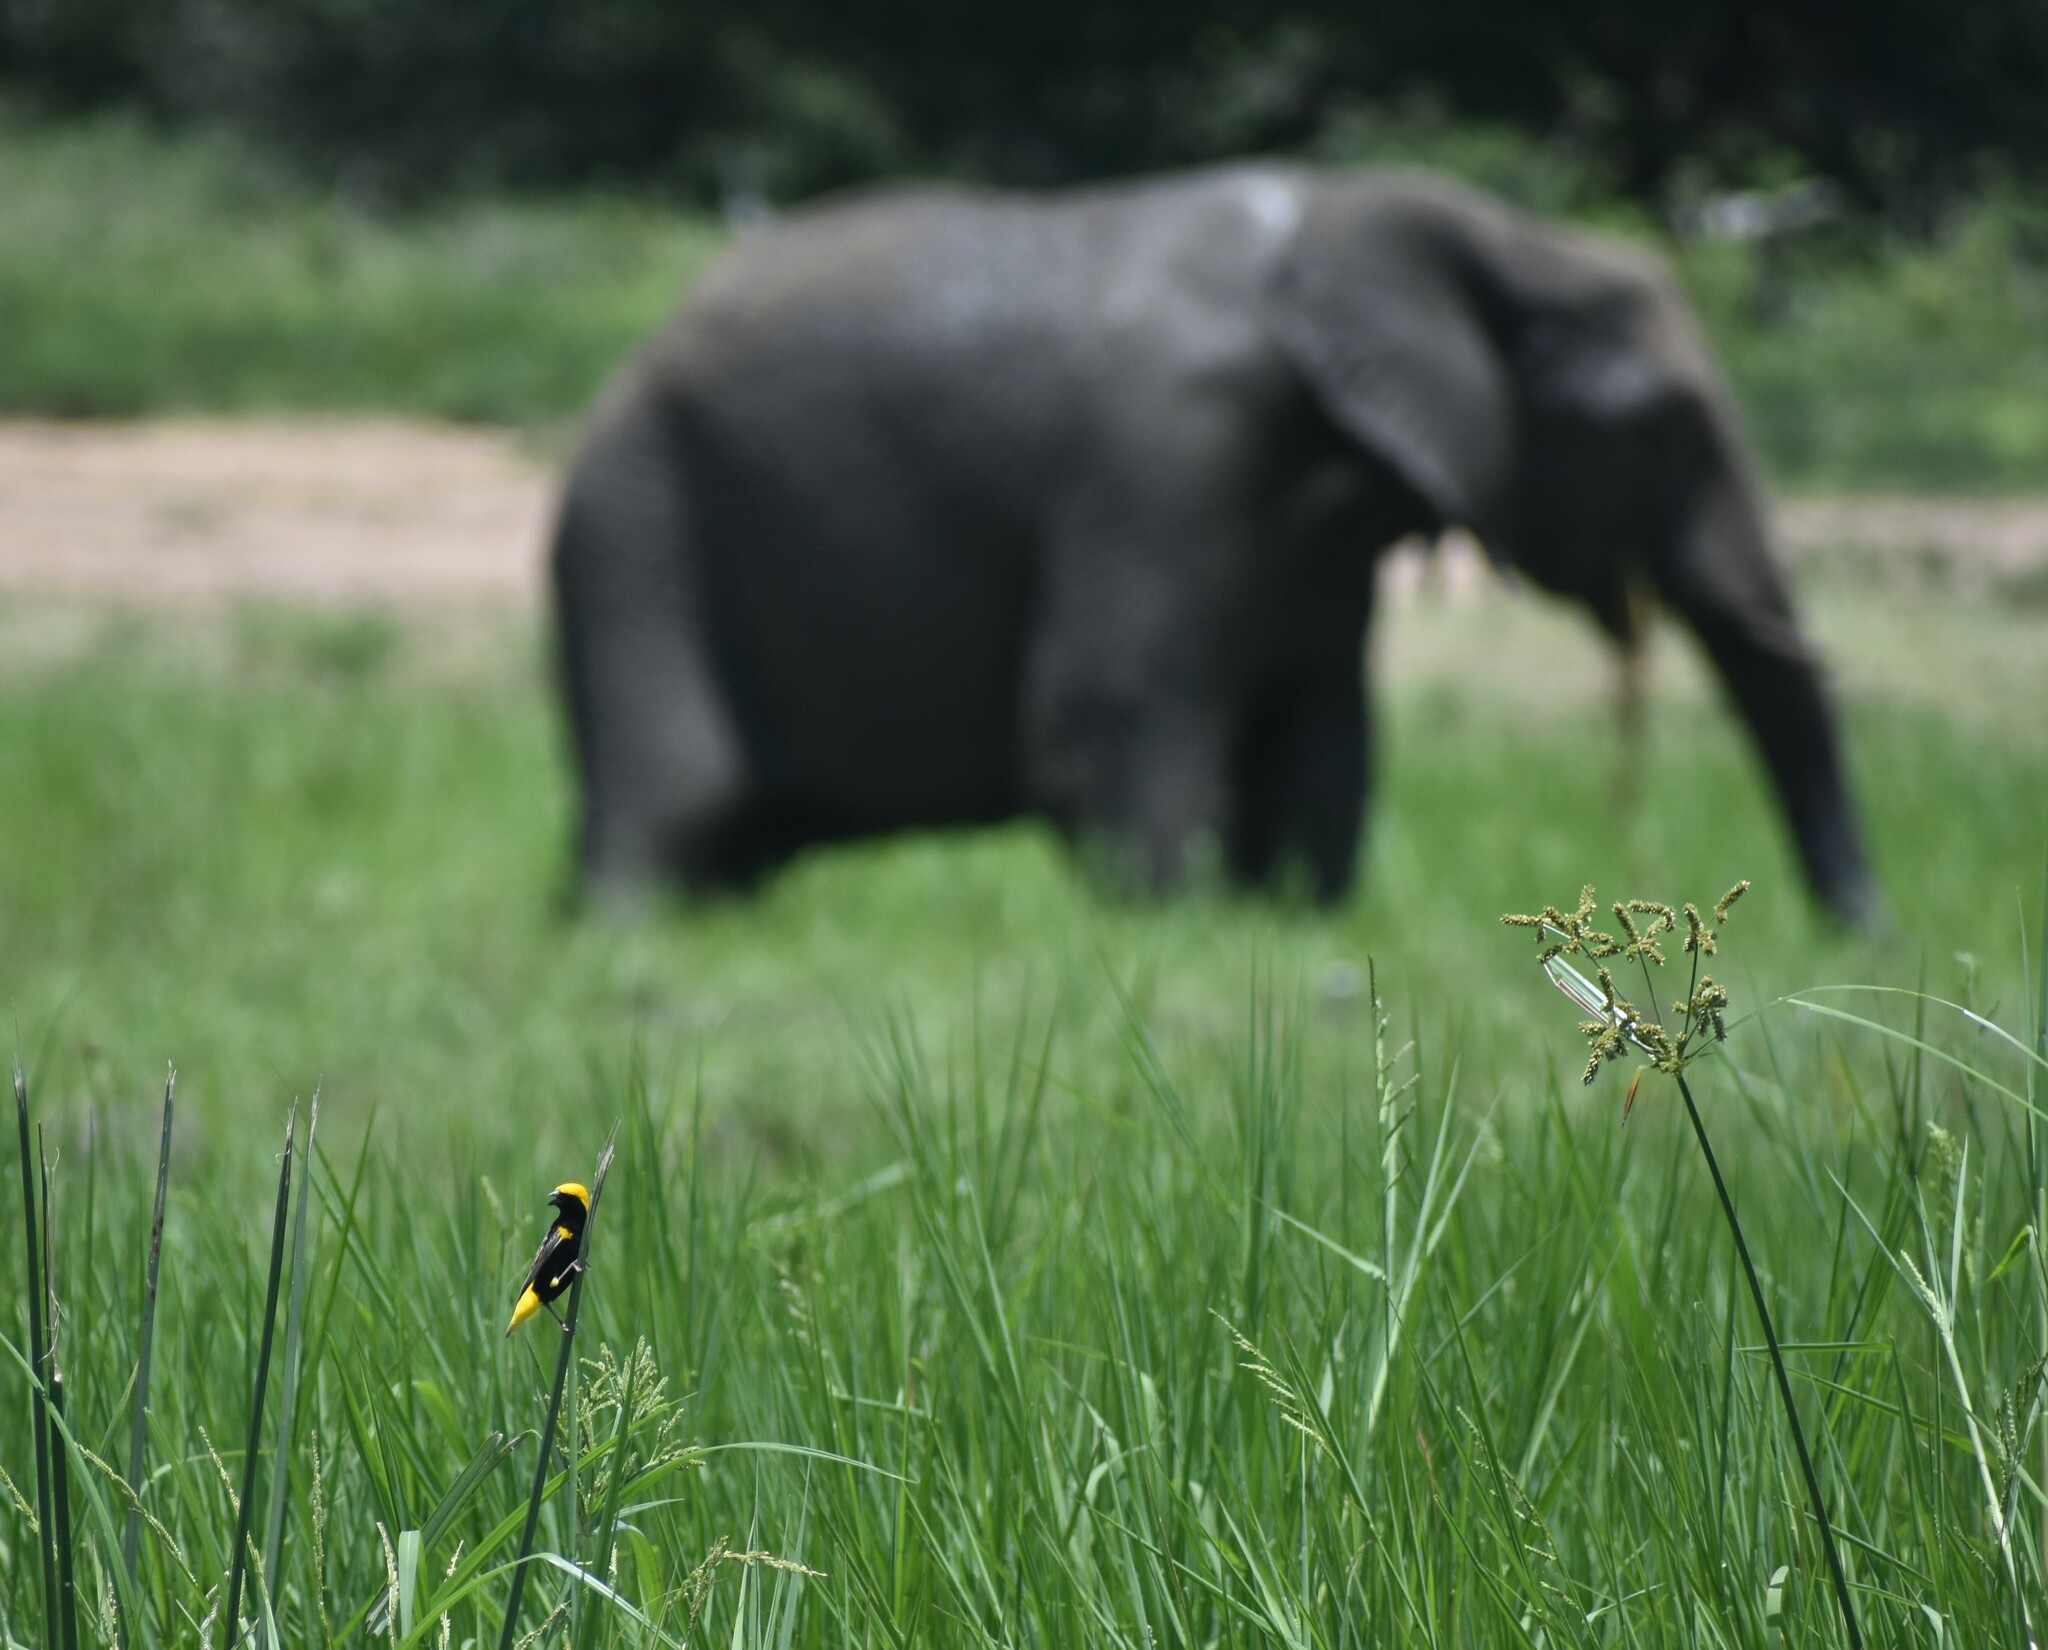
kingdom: Animalia
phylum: Chordata
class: Mammalia
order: Proboscidea
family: Elephantidae
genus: Loxodonta
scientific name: Loxodonta africana
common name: African elephant
